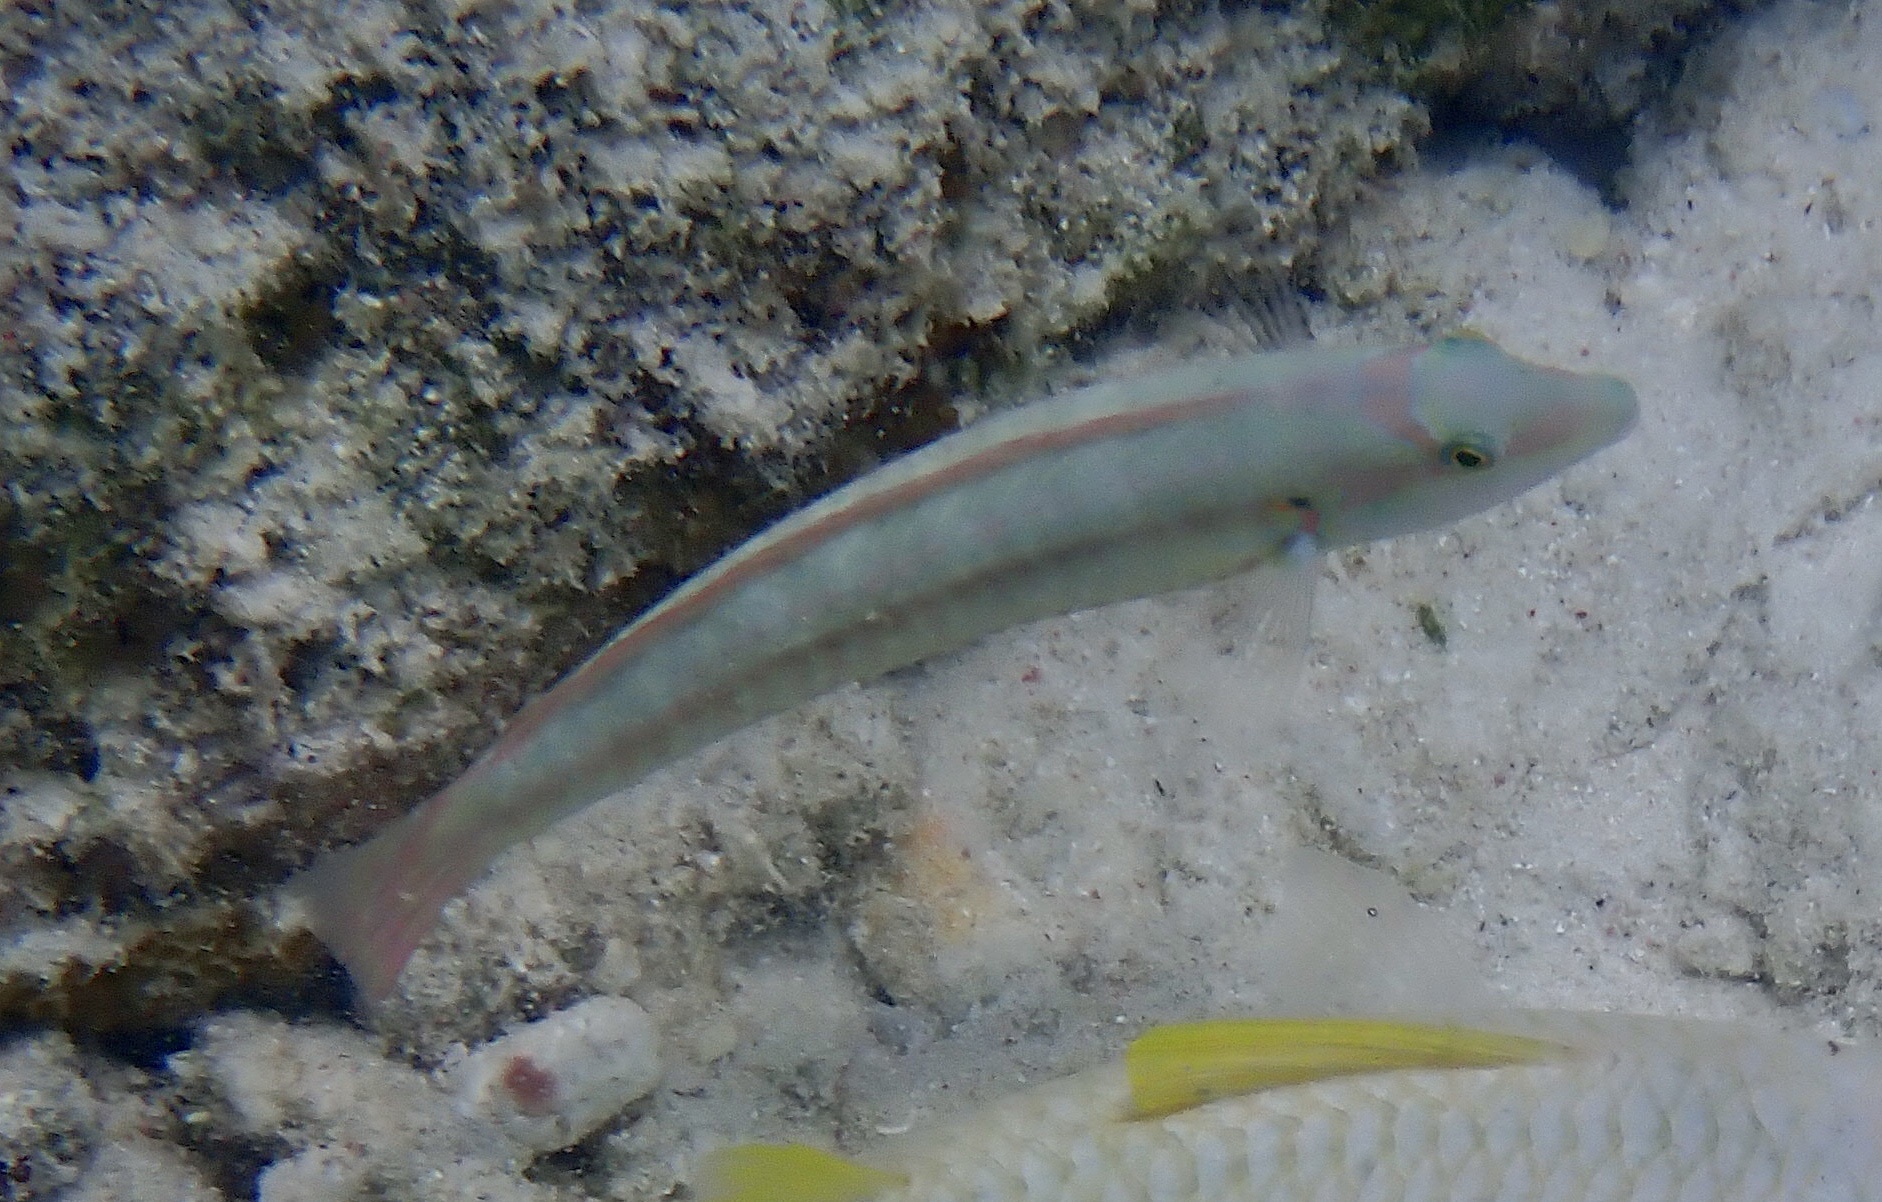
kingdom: Animalia
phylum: Chordata
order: Perciformes
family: Labridae
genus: Halichoeres
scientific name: Halichoeres bivittatus
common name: Slippery dick
